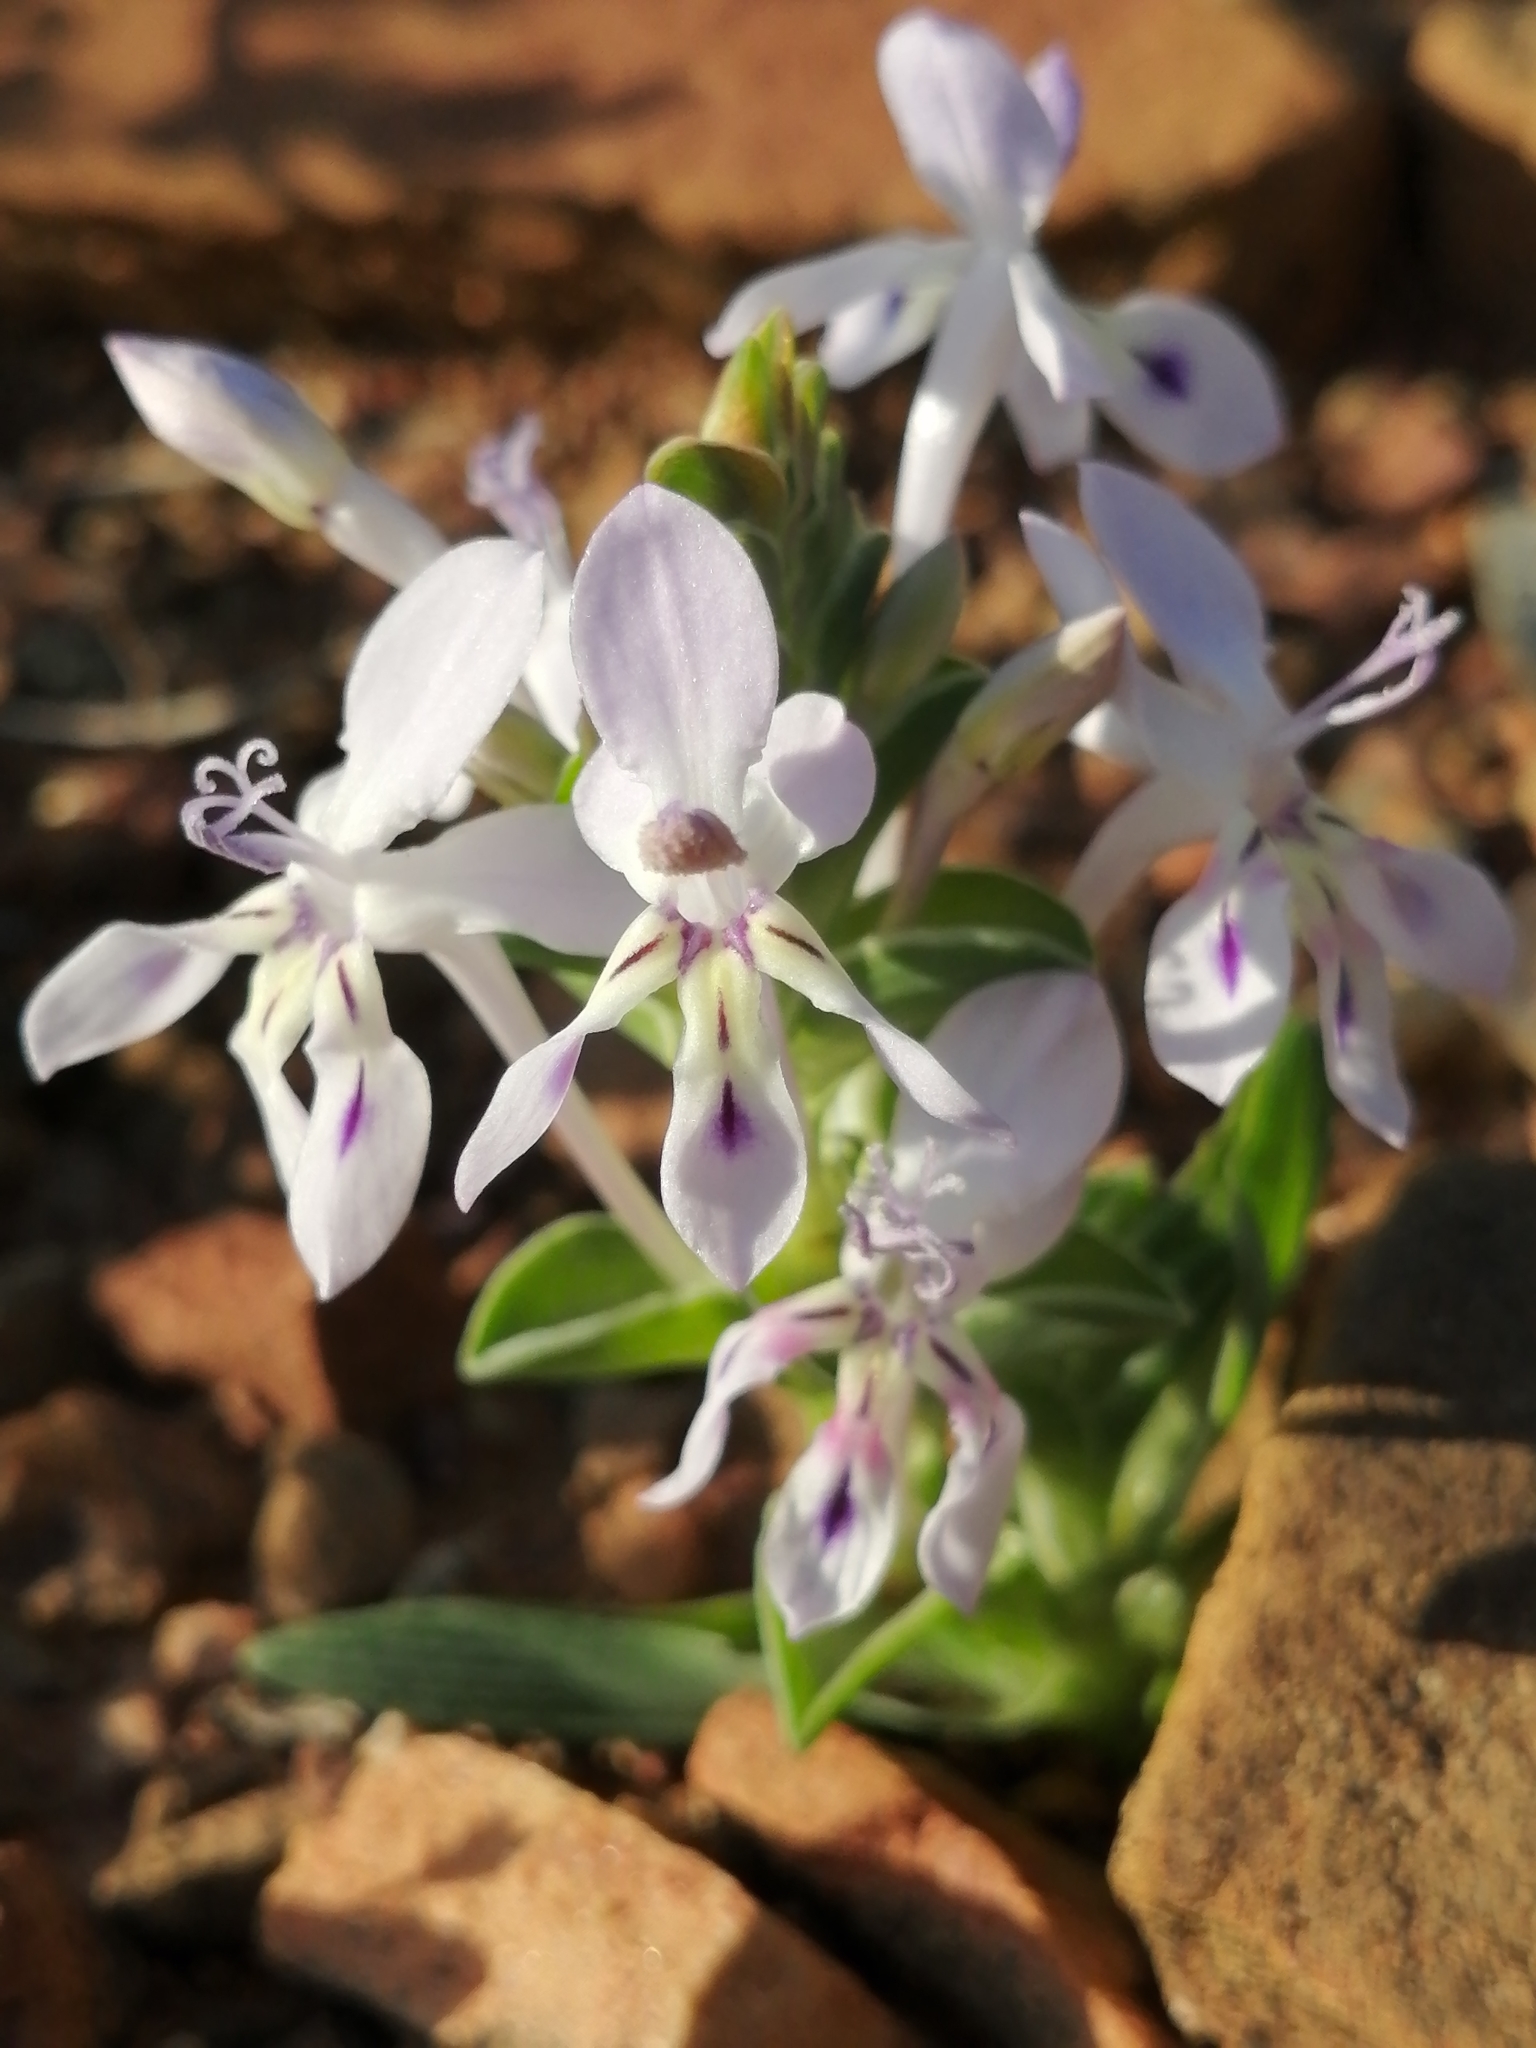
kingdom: Plantae
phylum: Tracheophyta
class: Liliopsida
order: Asparagales
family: Iridaceae
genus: Lapeirousia
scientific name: Lapeirousia pyramidalis
